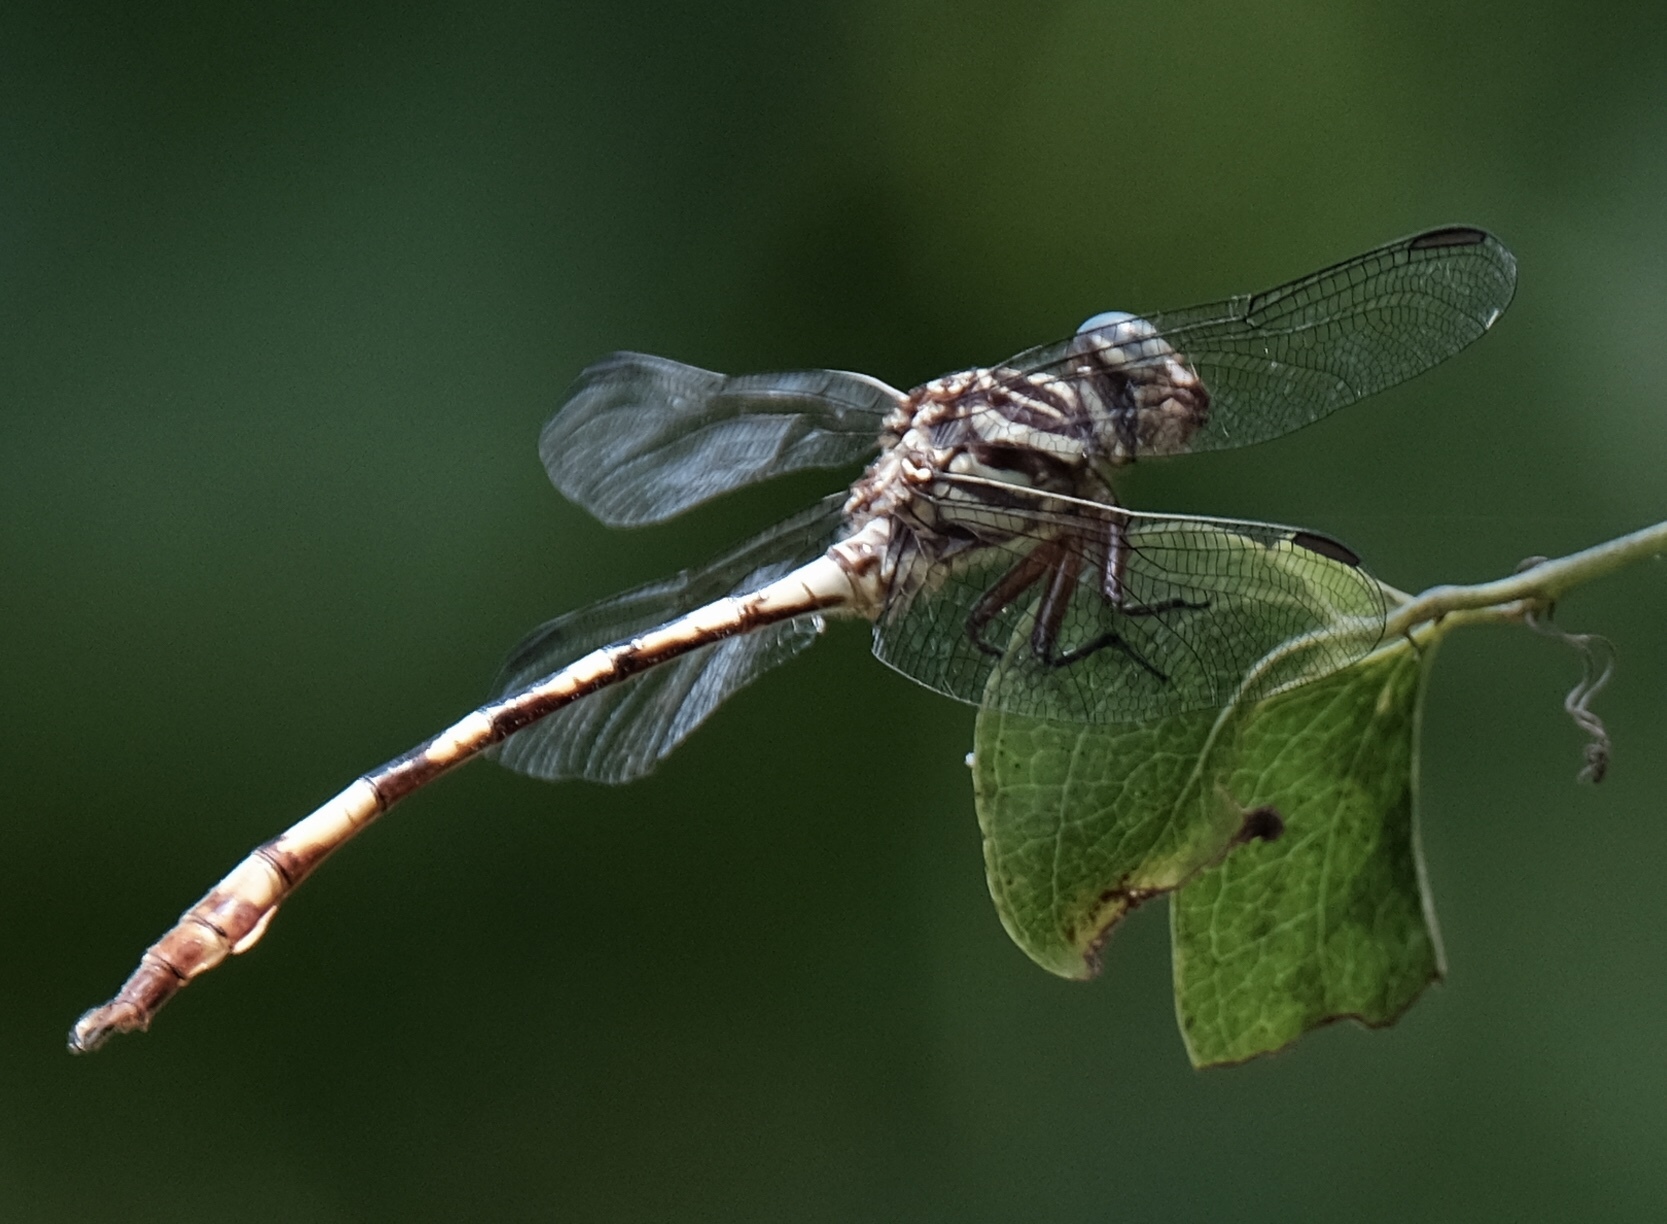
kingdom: Animalia
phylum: Arthropoda
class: Insecta
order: Odonata
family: Gomphidae
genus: Aphylla
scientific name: Aphylla angustifolia
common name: Broad-striped forceptail
